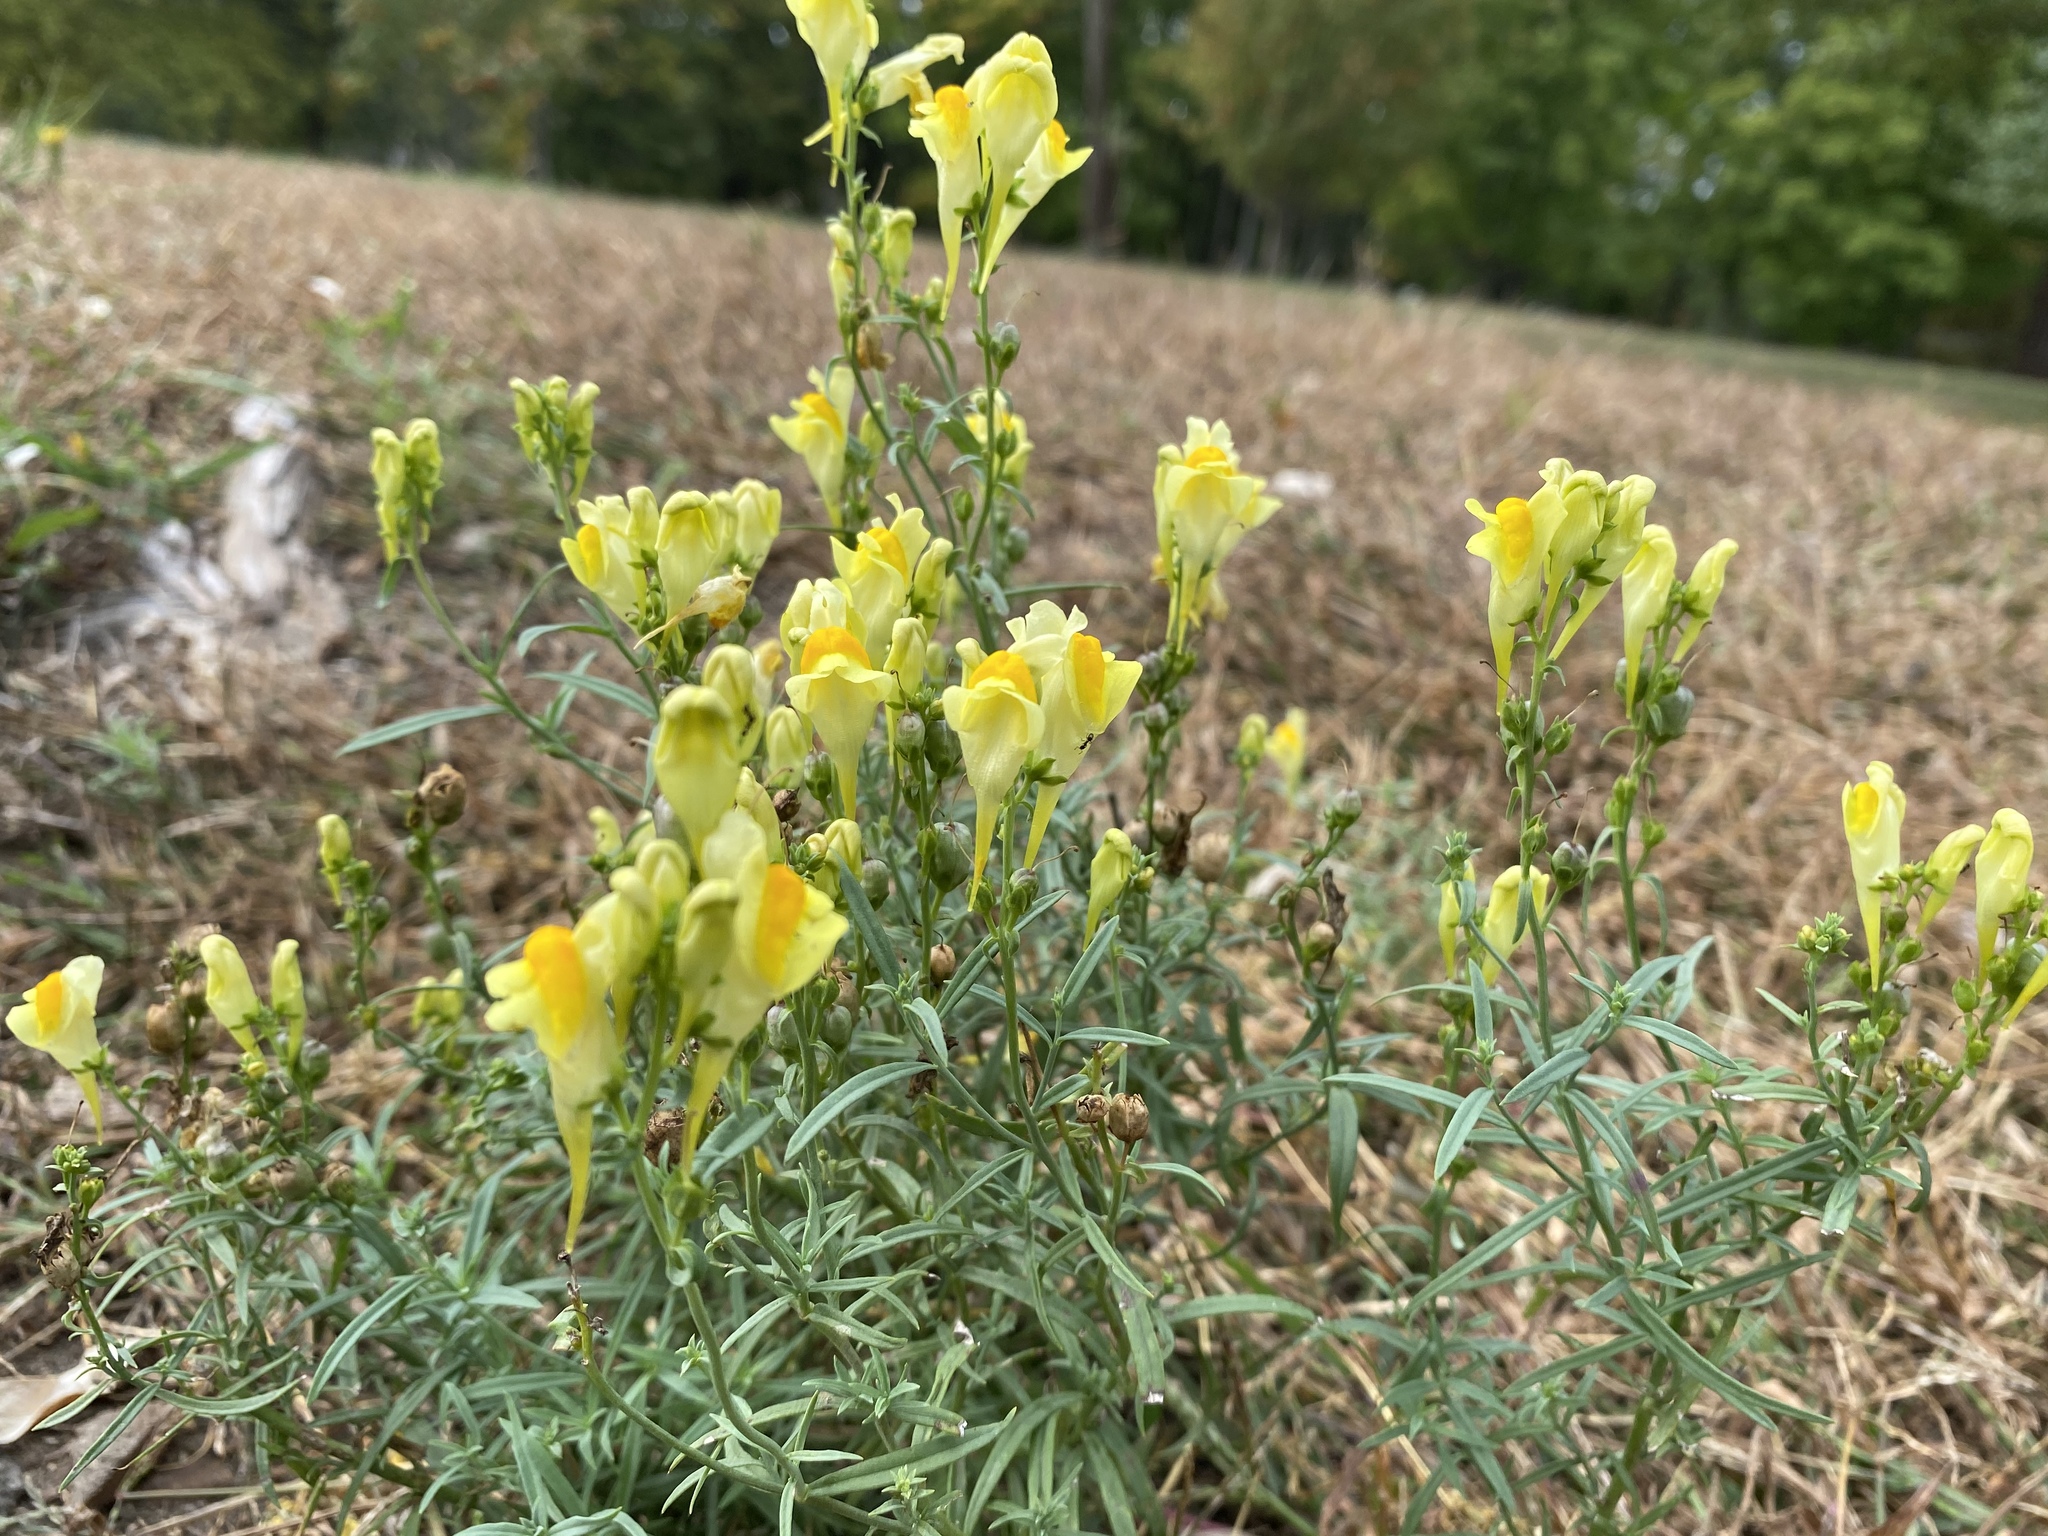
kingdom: Plantae
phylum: Tracheophyta
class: Magnoliopsida
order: Lamiales
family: Plantaginaceae
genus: Linaria
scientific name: Linaria vulgaris
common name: Butter and eggs
